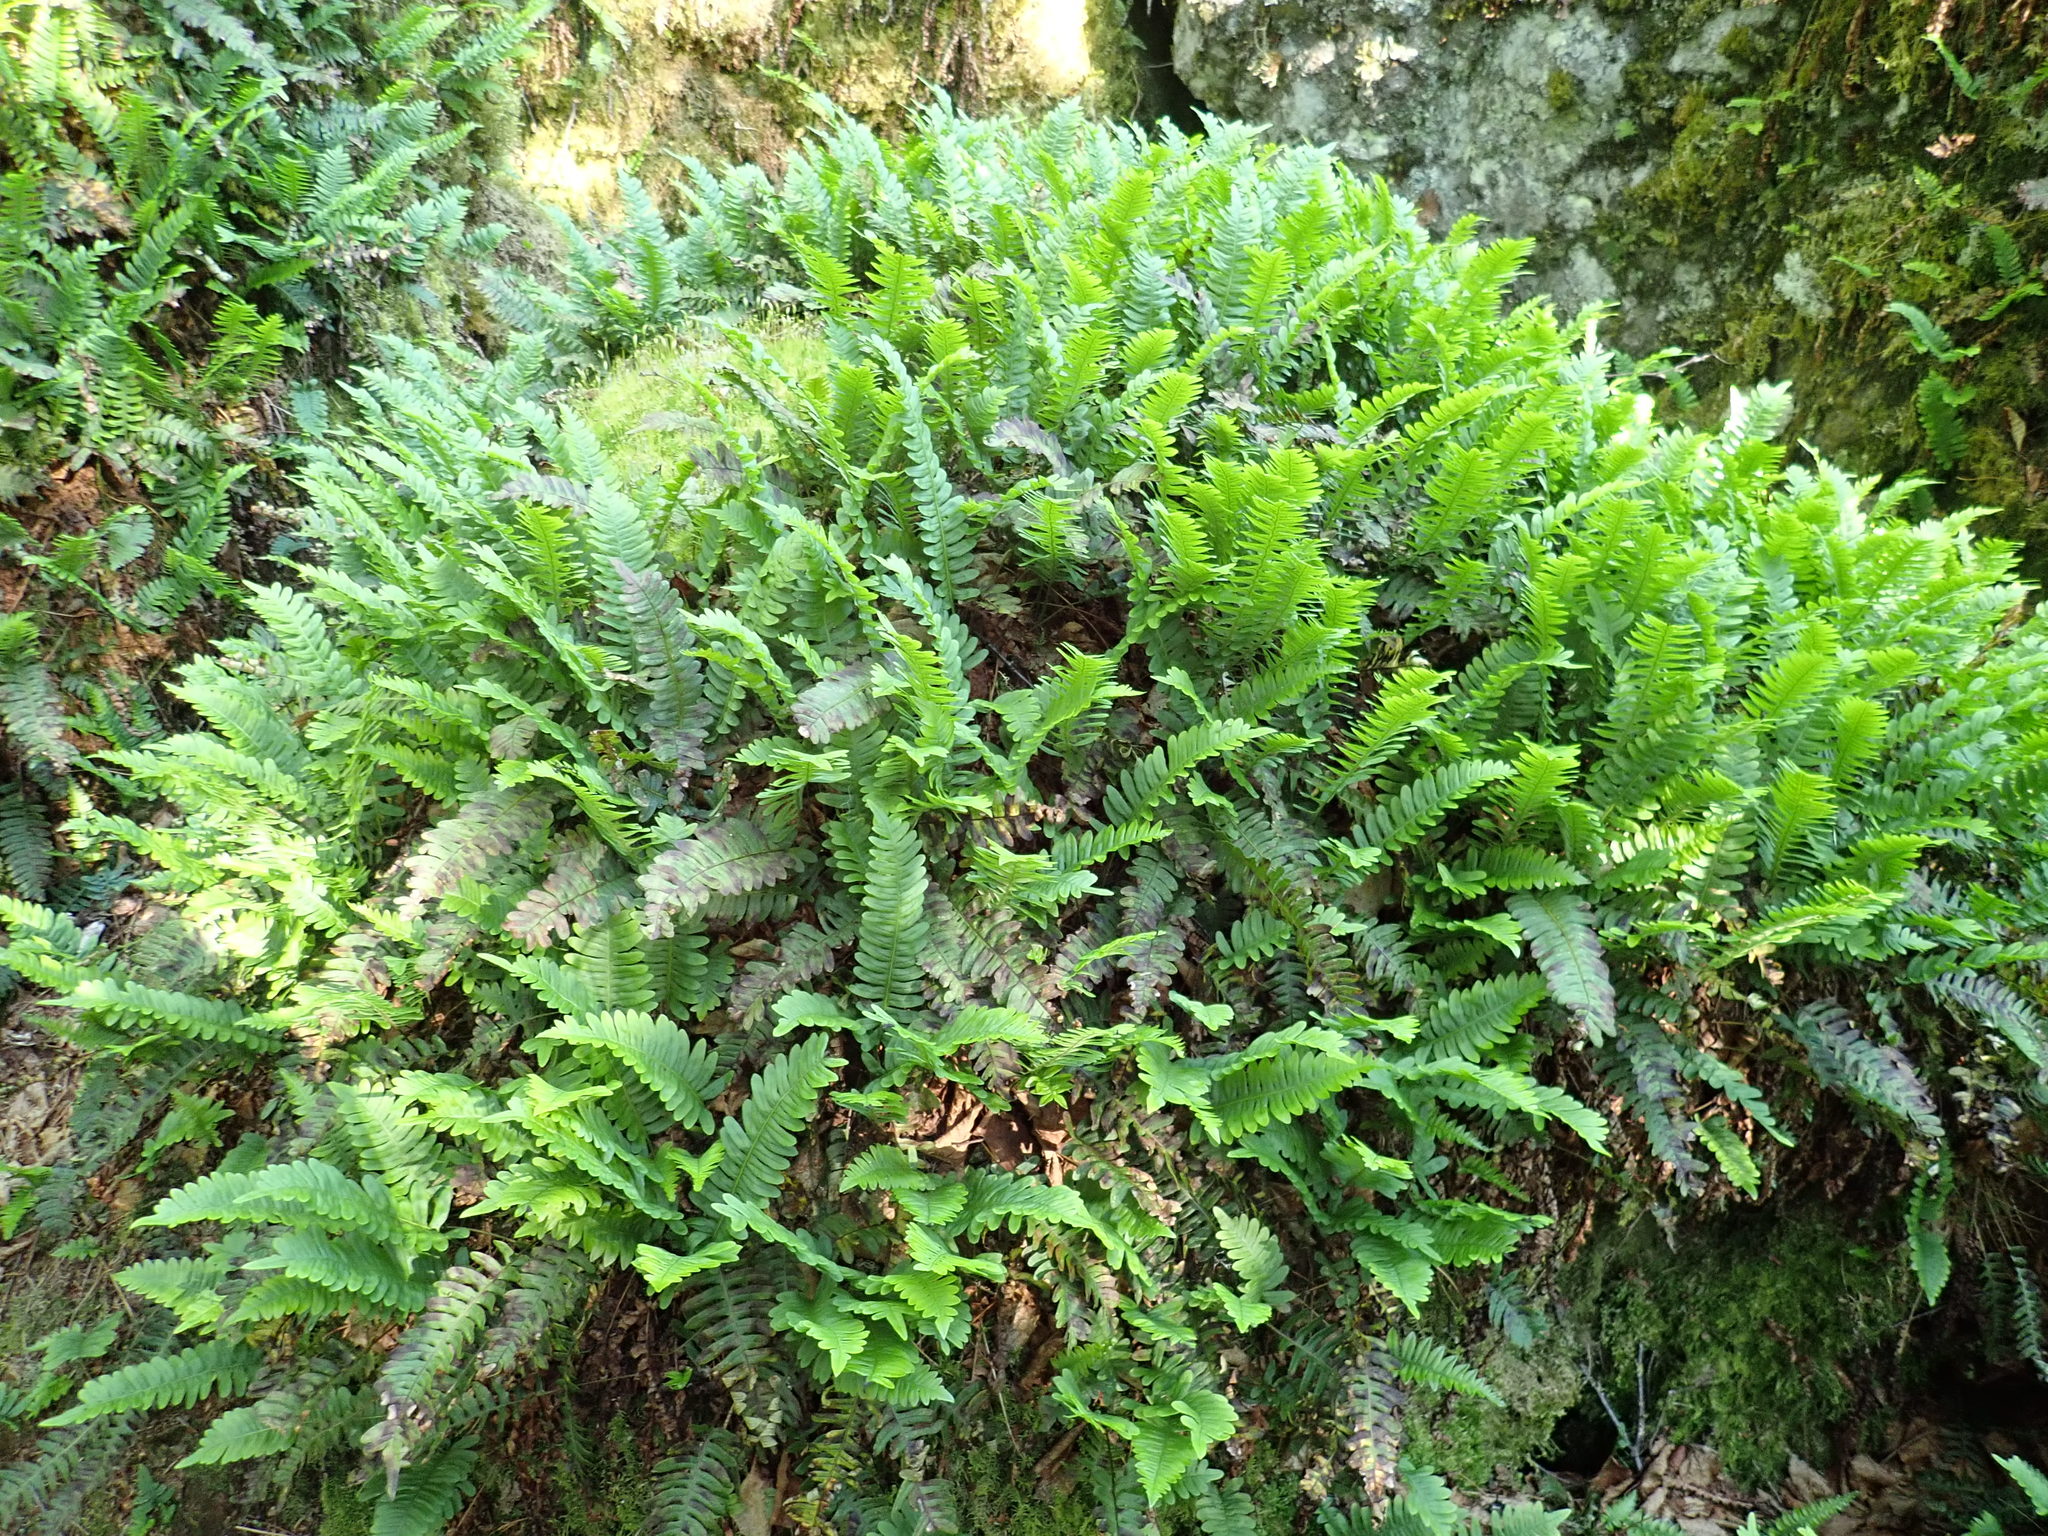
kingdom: Plantae
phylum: Tracheophyta
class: Polypodiopsida
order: Polypodiales
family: Polypodiaceae
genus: Polypodium
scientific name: Polypodium virginianum
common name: American wall fern
